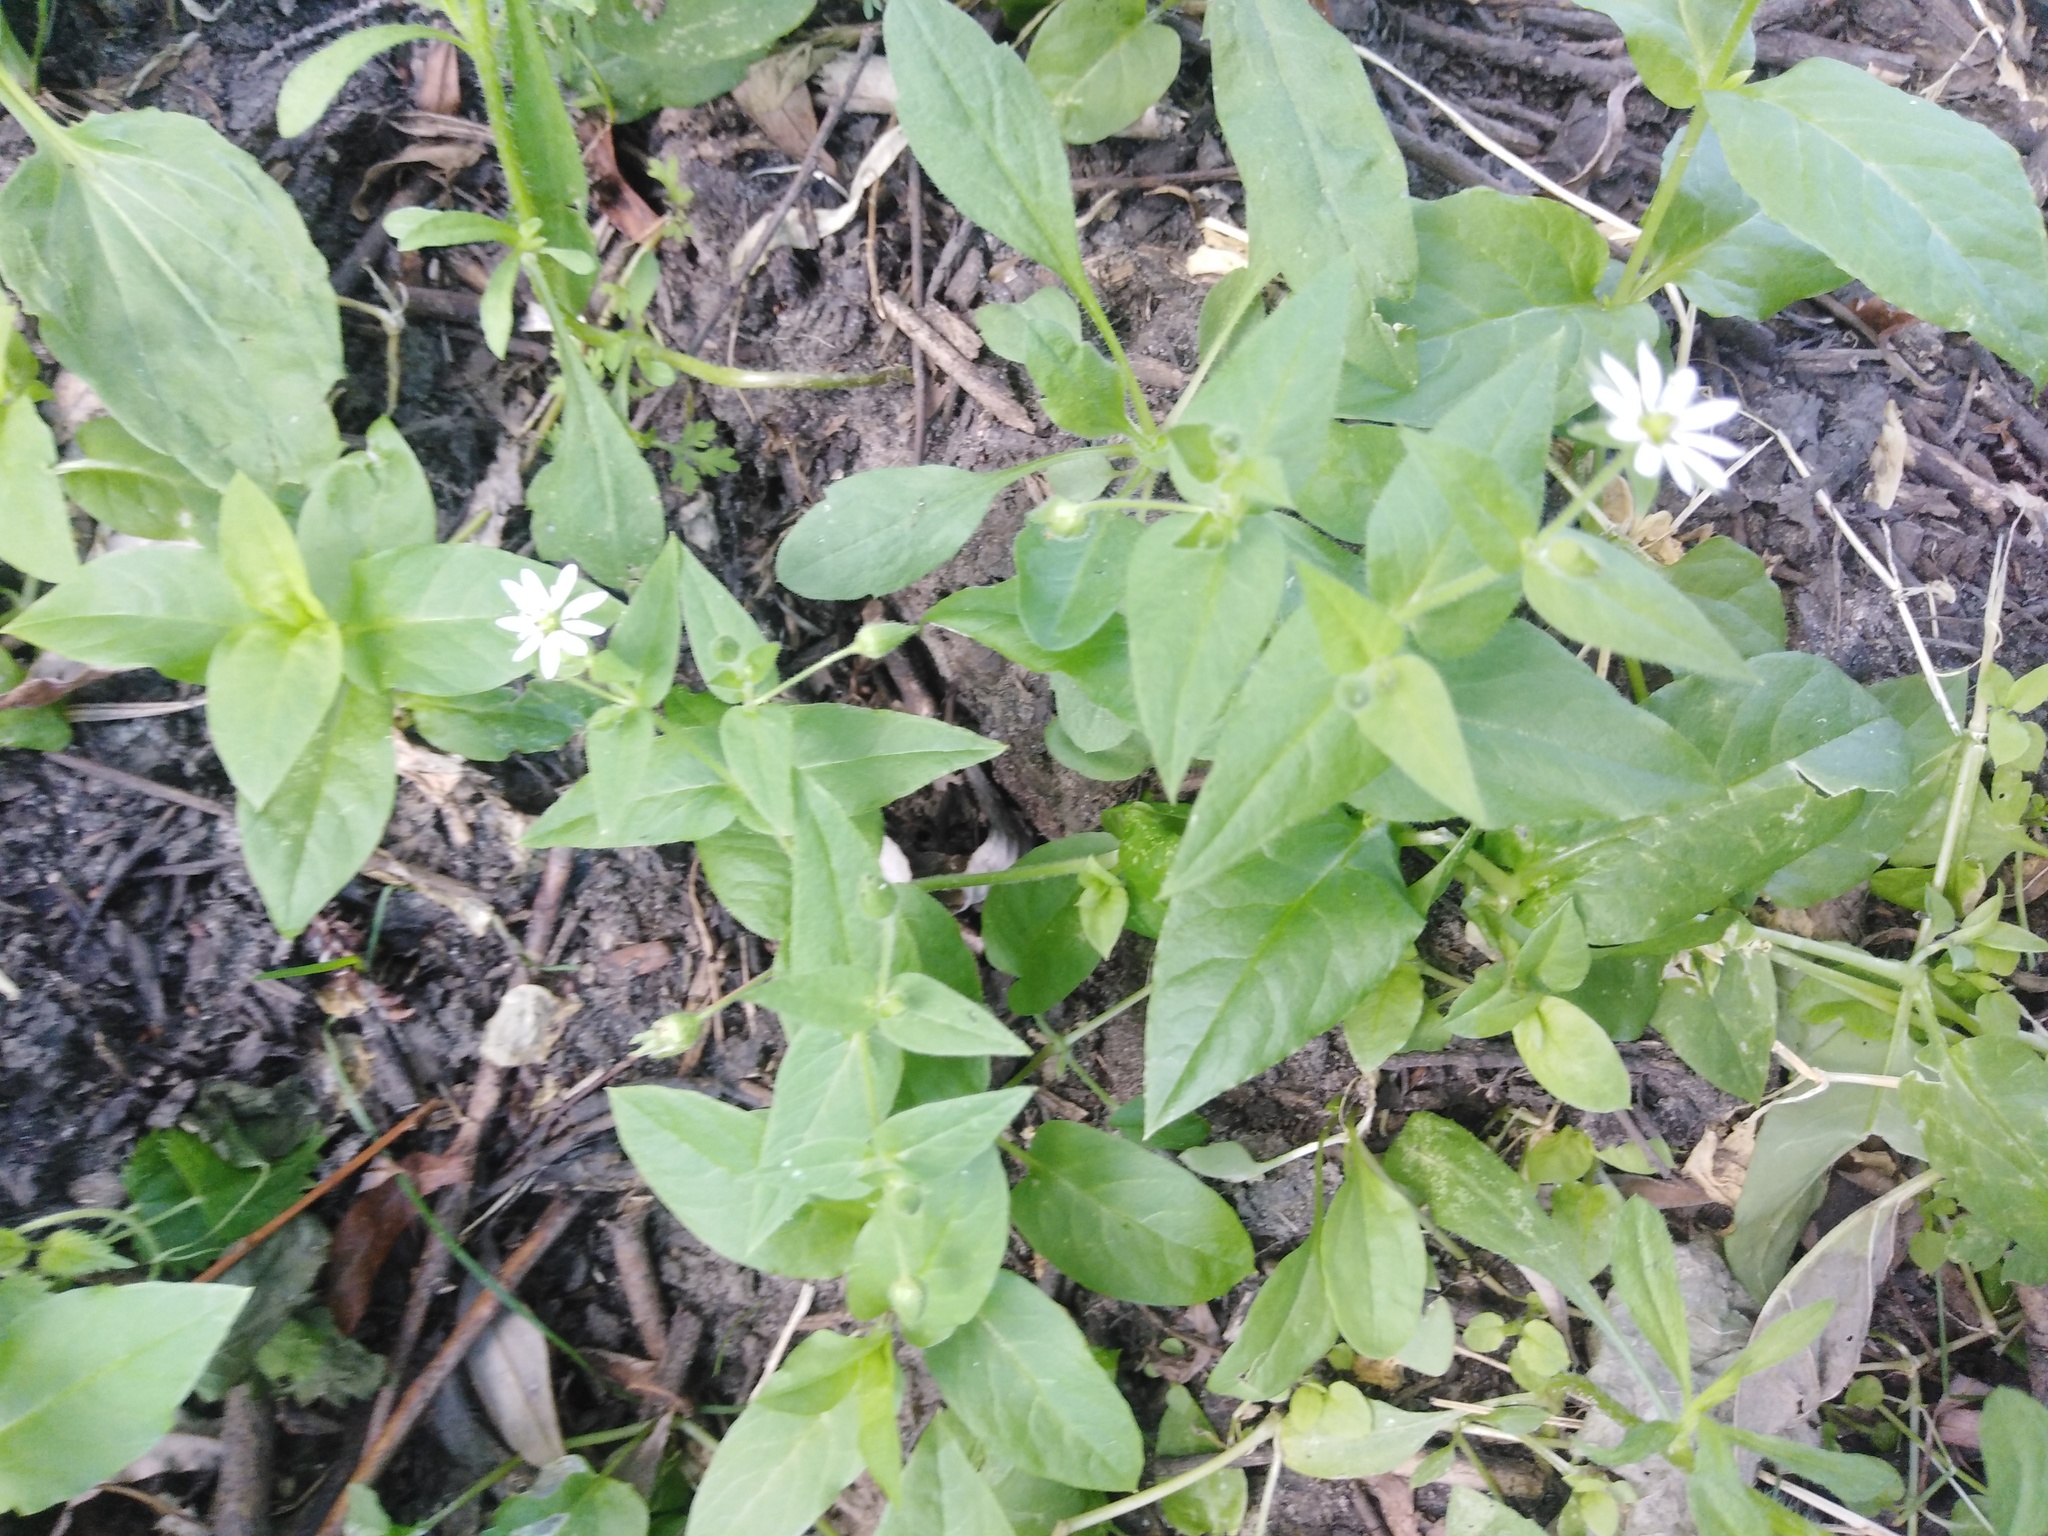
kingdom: Plantae
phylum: Tracheophyta
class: Magnoliopsida
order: Caryophyllales
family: Caryophyllaceae
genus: Stellaria
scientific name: Stellaria aquatica
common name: Water chickweed
